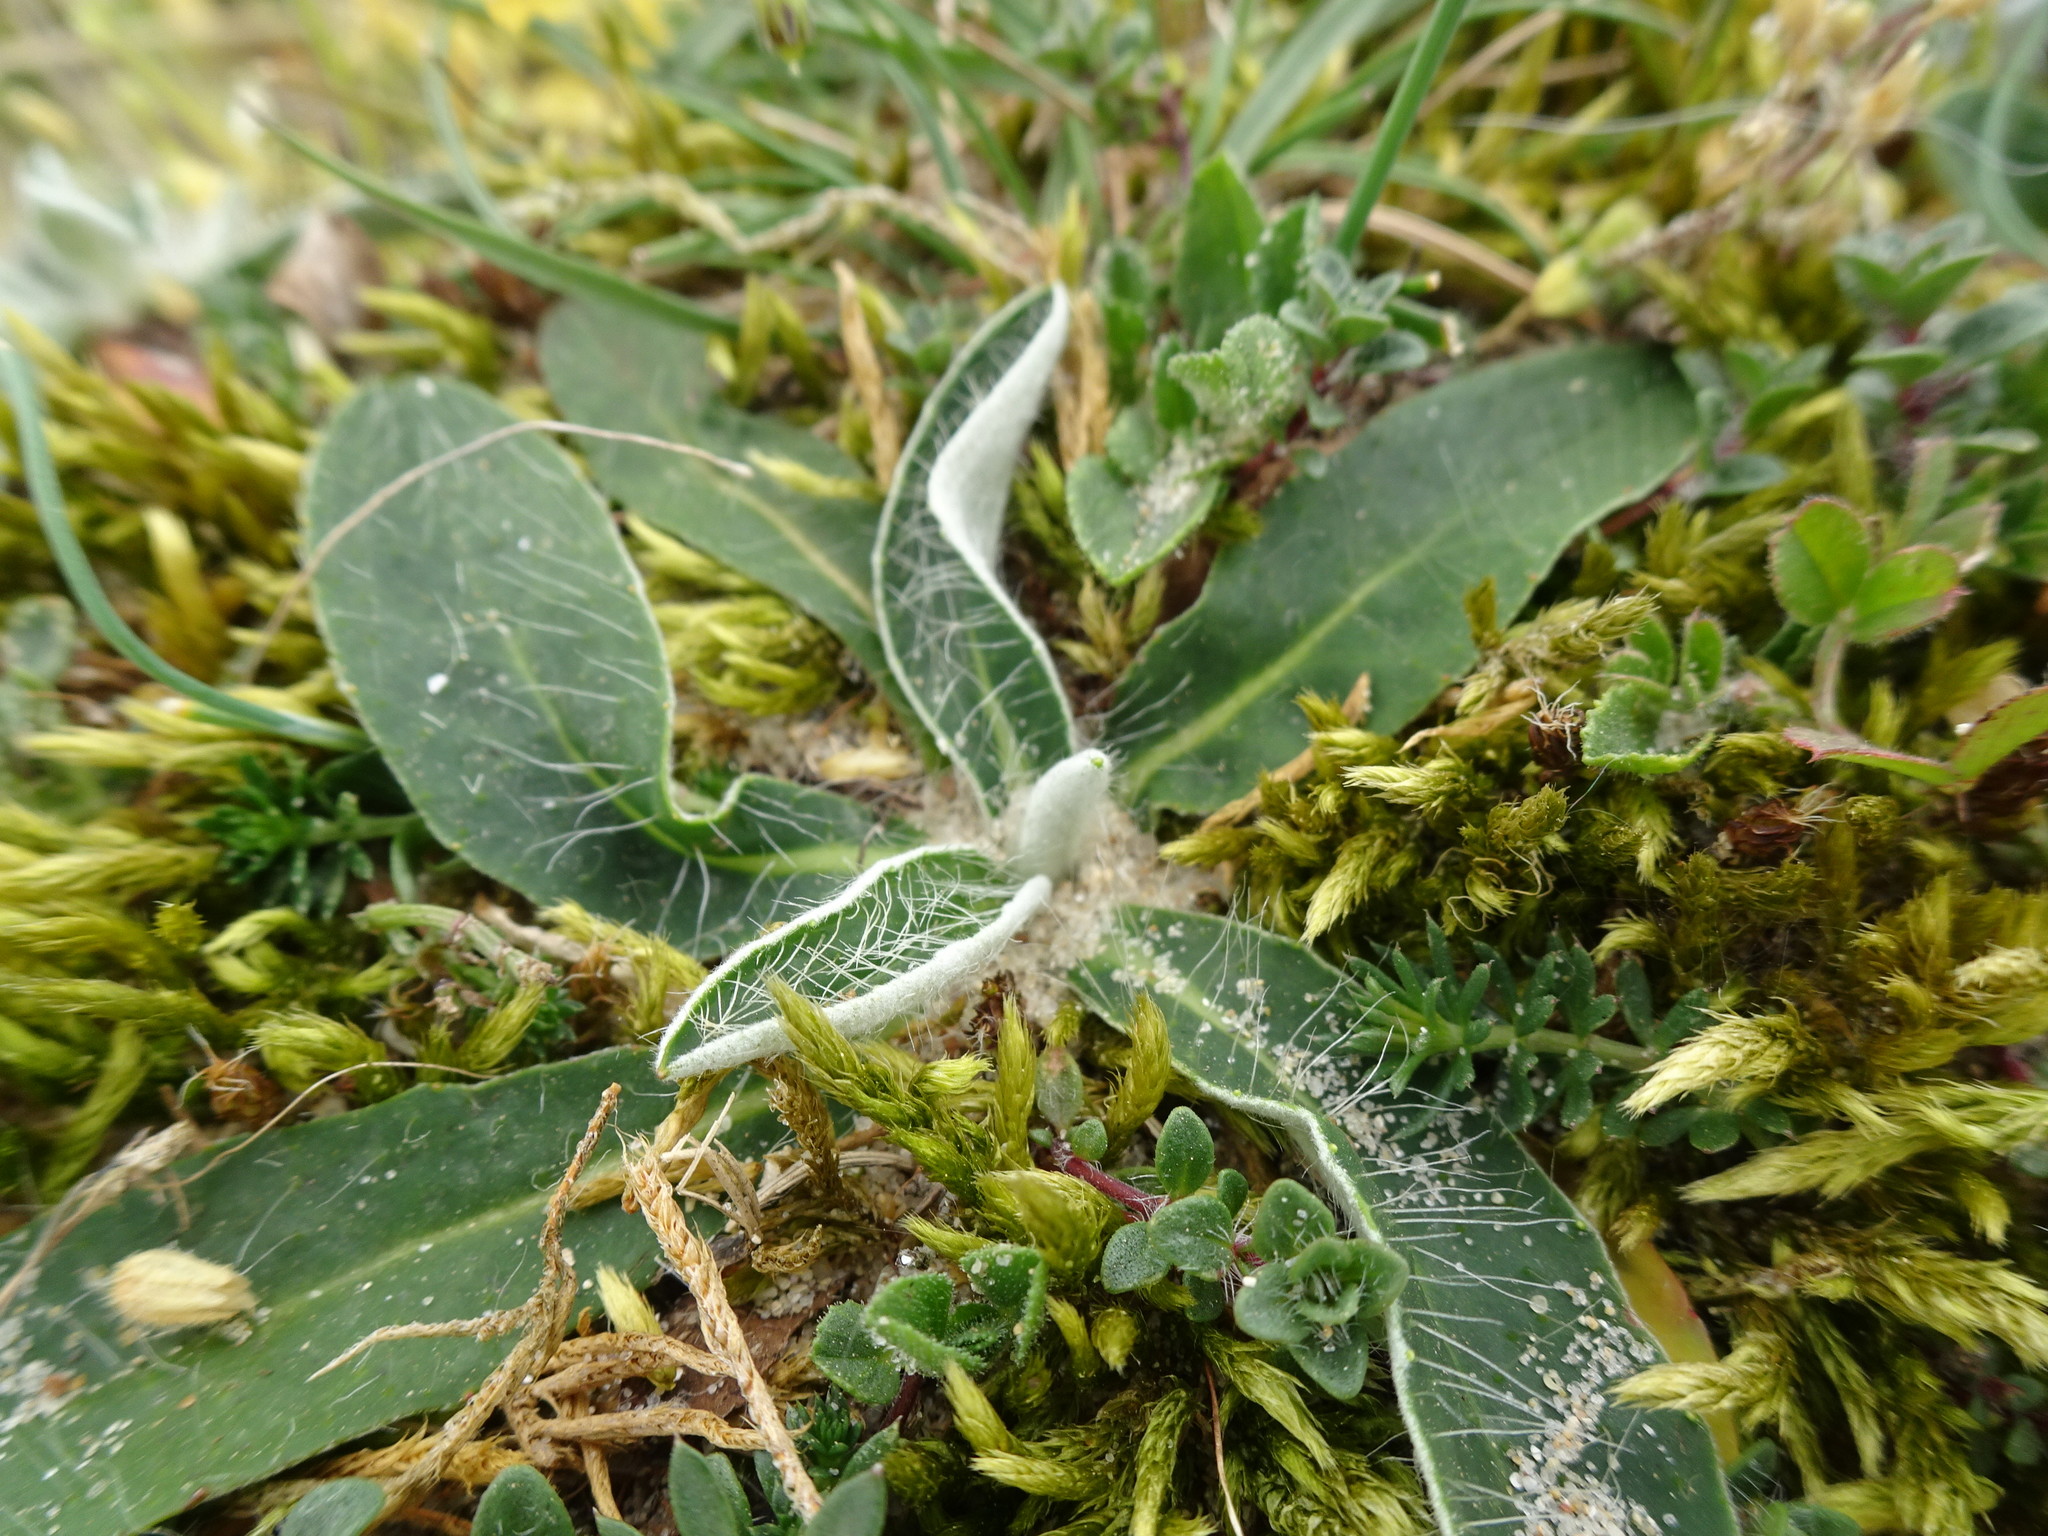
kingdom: Plantae
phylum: Tracheophyta
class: Magnoliopsida
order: Asterales
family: Asteraceae
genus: Pilosella
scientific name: Pilosella officinarum
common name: Mouse-ear hawkweed
